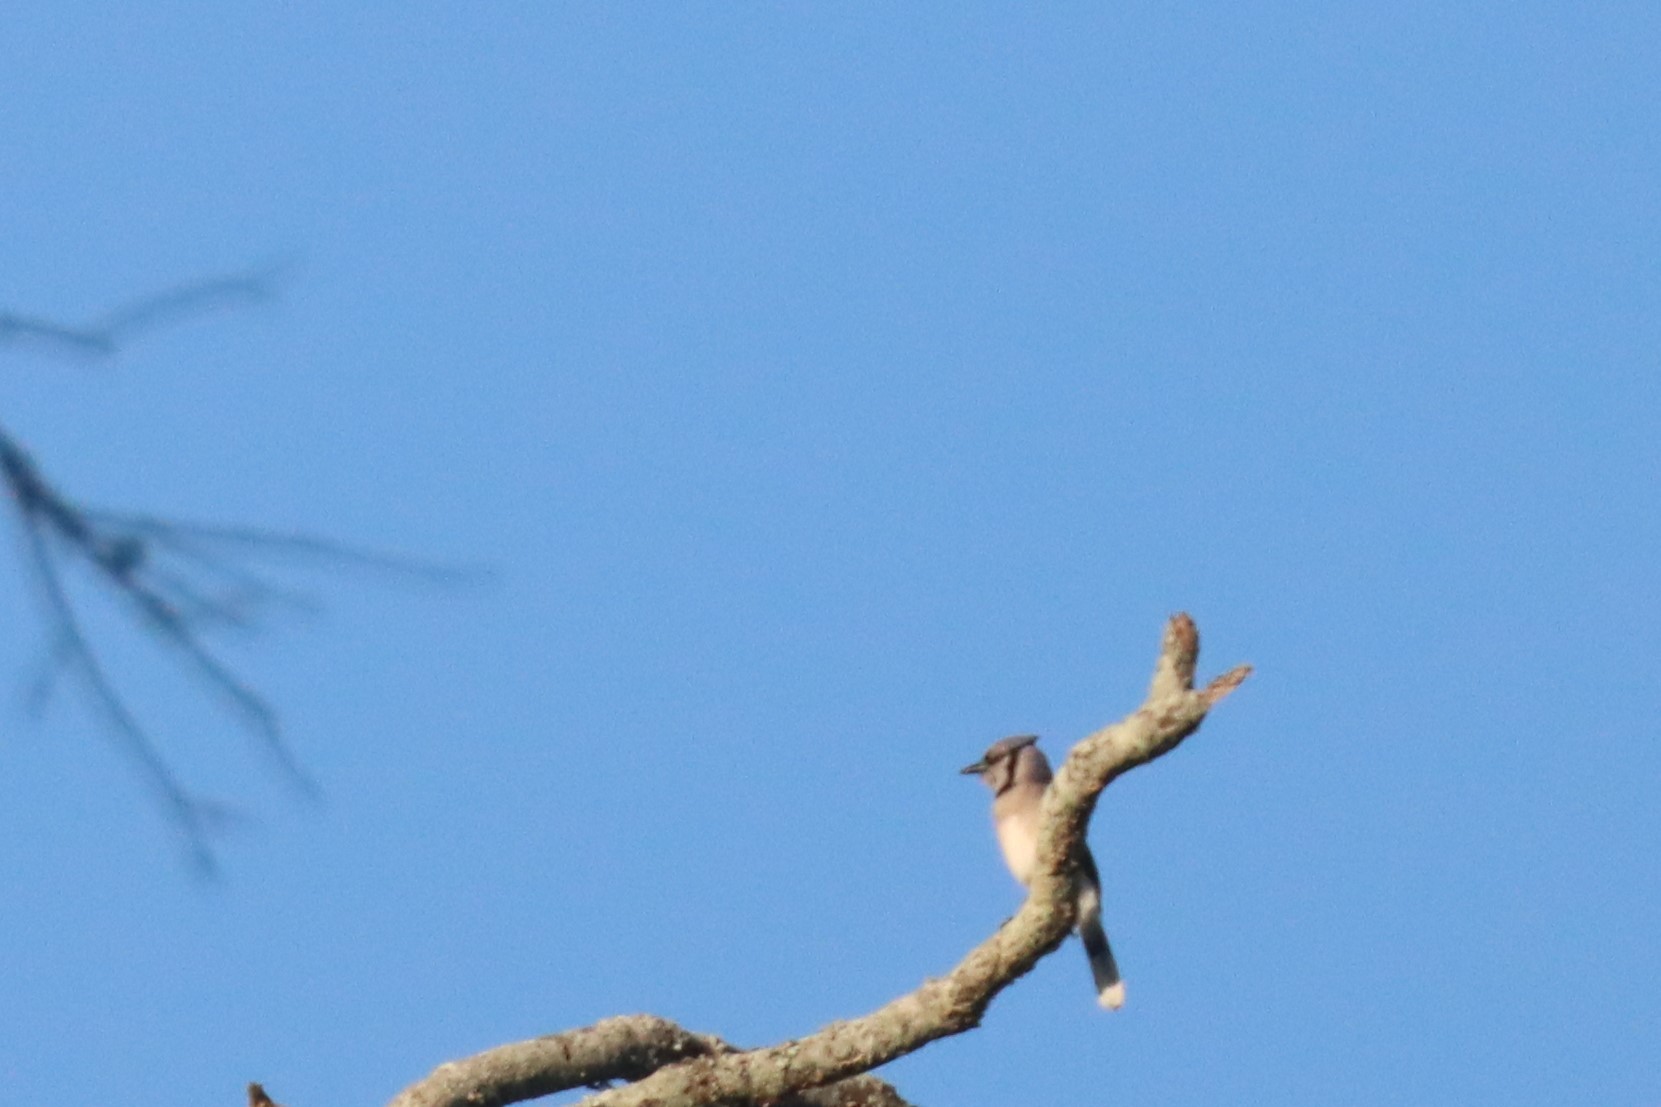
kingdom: Animalia
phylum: Chordata
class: Aves
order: Passeriformes
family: Corvidae
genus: Cyanocitta
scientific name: Cyanocitta cristata
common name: Blue jay
